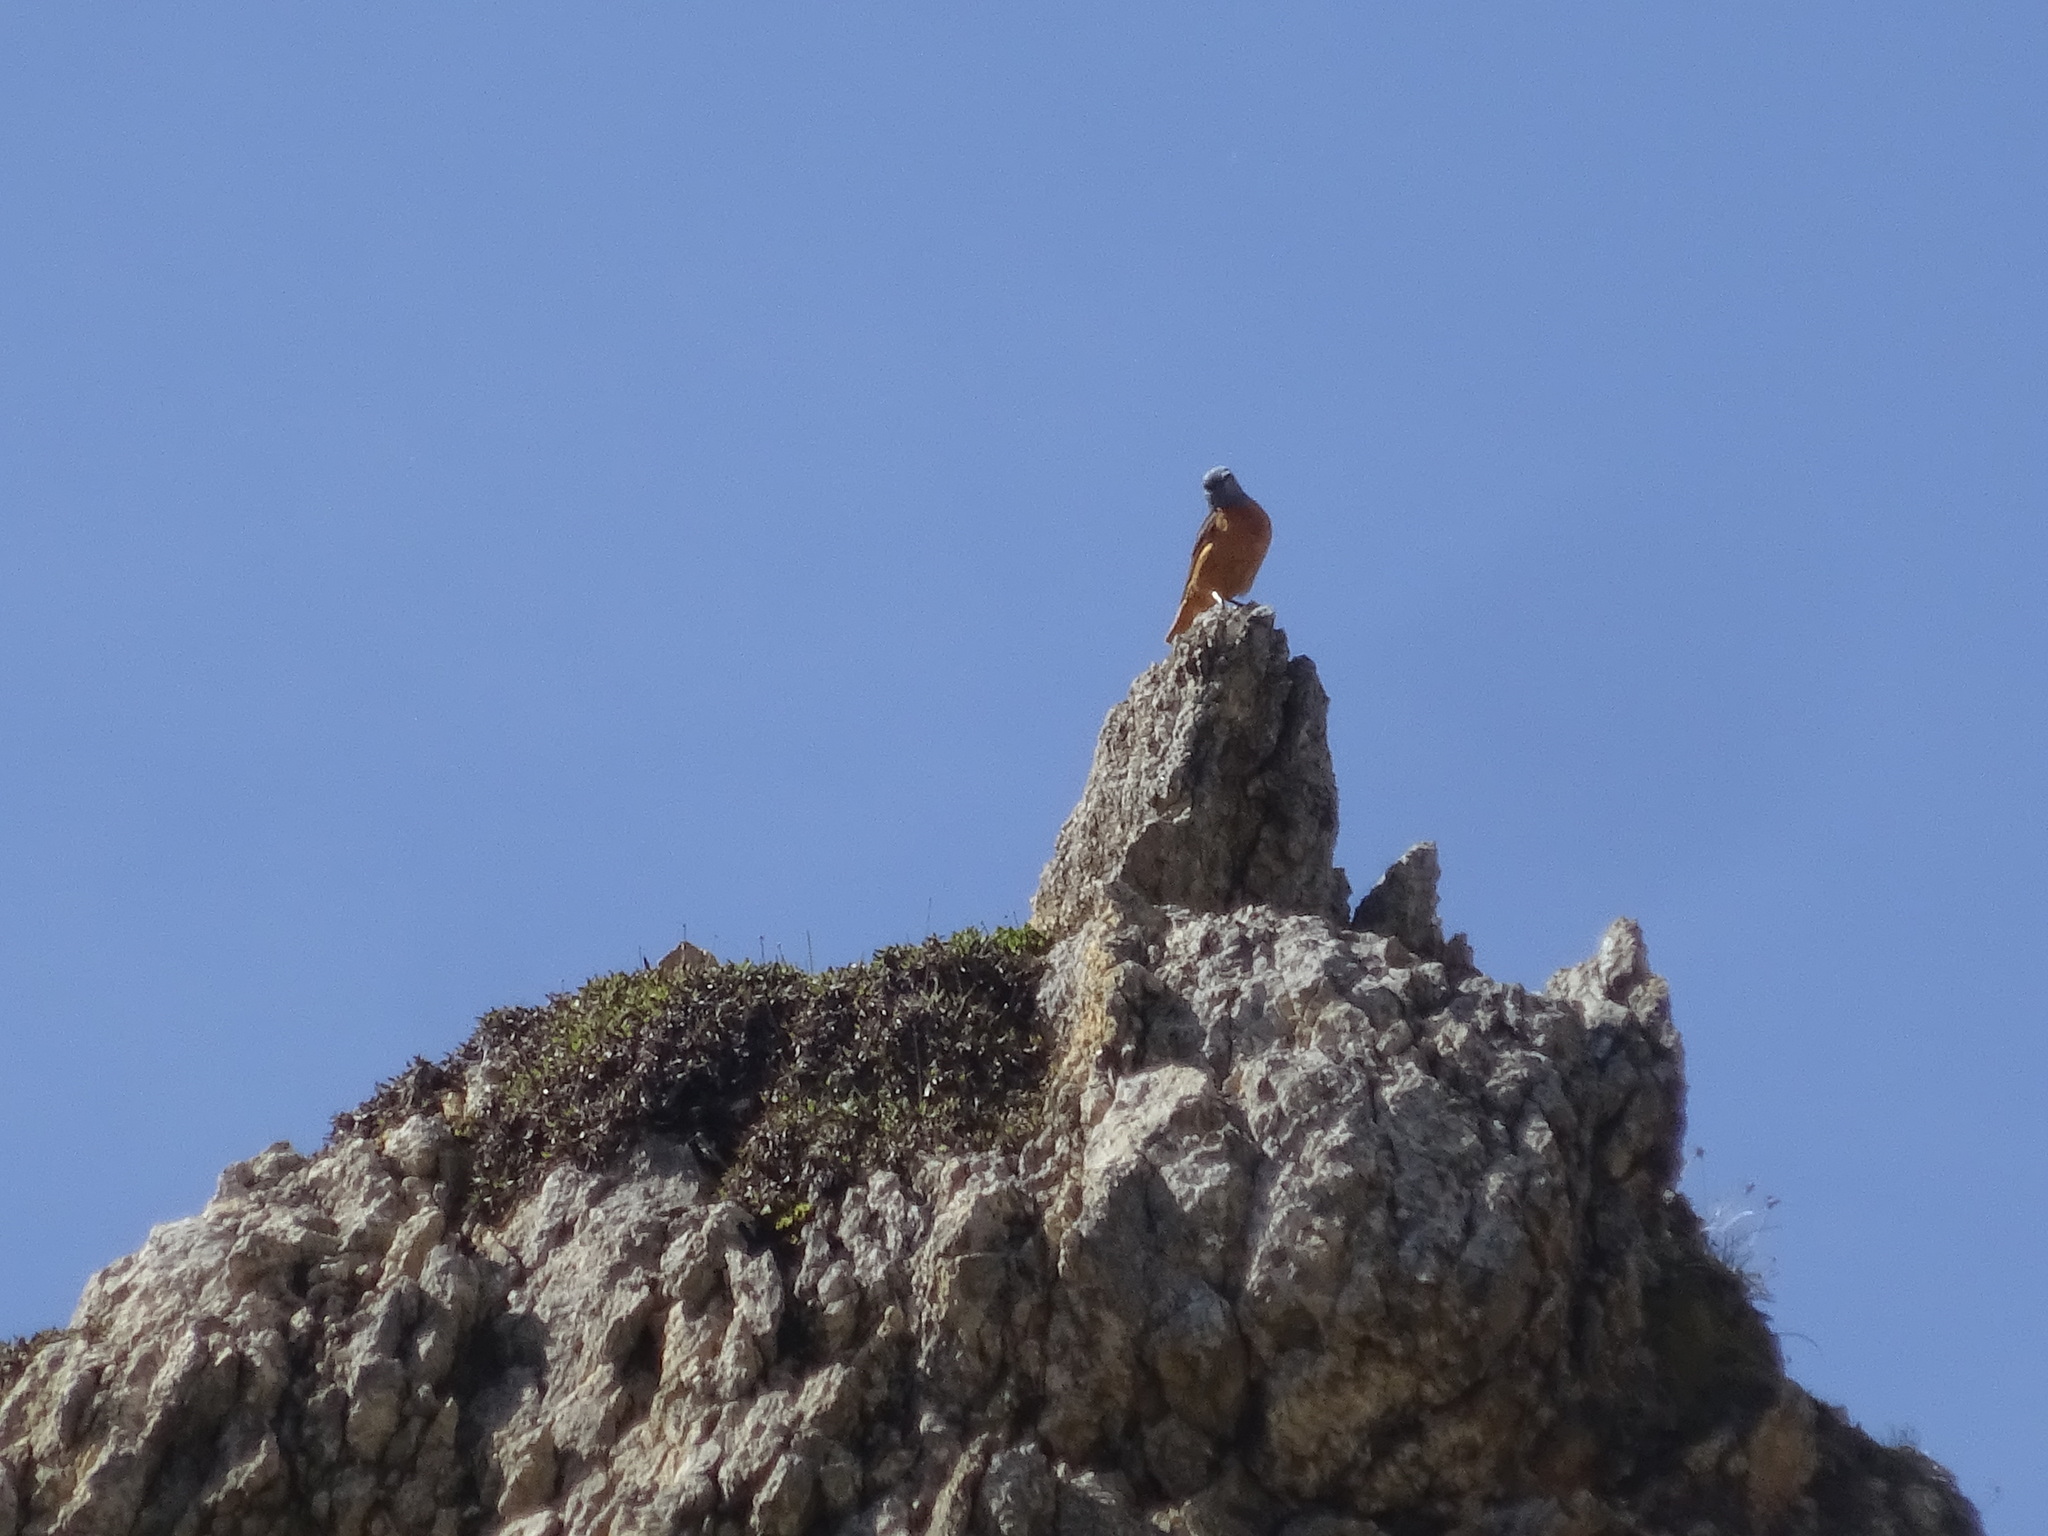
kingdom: Animalia
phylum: Chordata
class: Aves
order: Passeriformes
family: Muscicapidae
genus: Monticola
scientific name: Monticola saxatilis
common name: Rufous-tailed rock thrush
